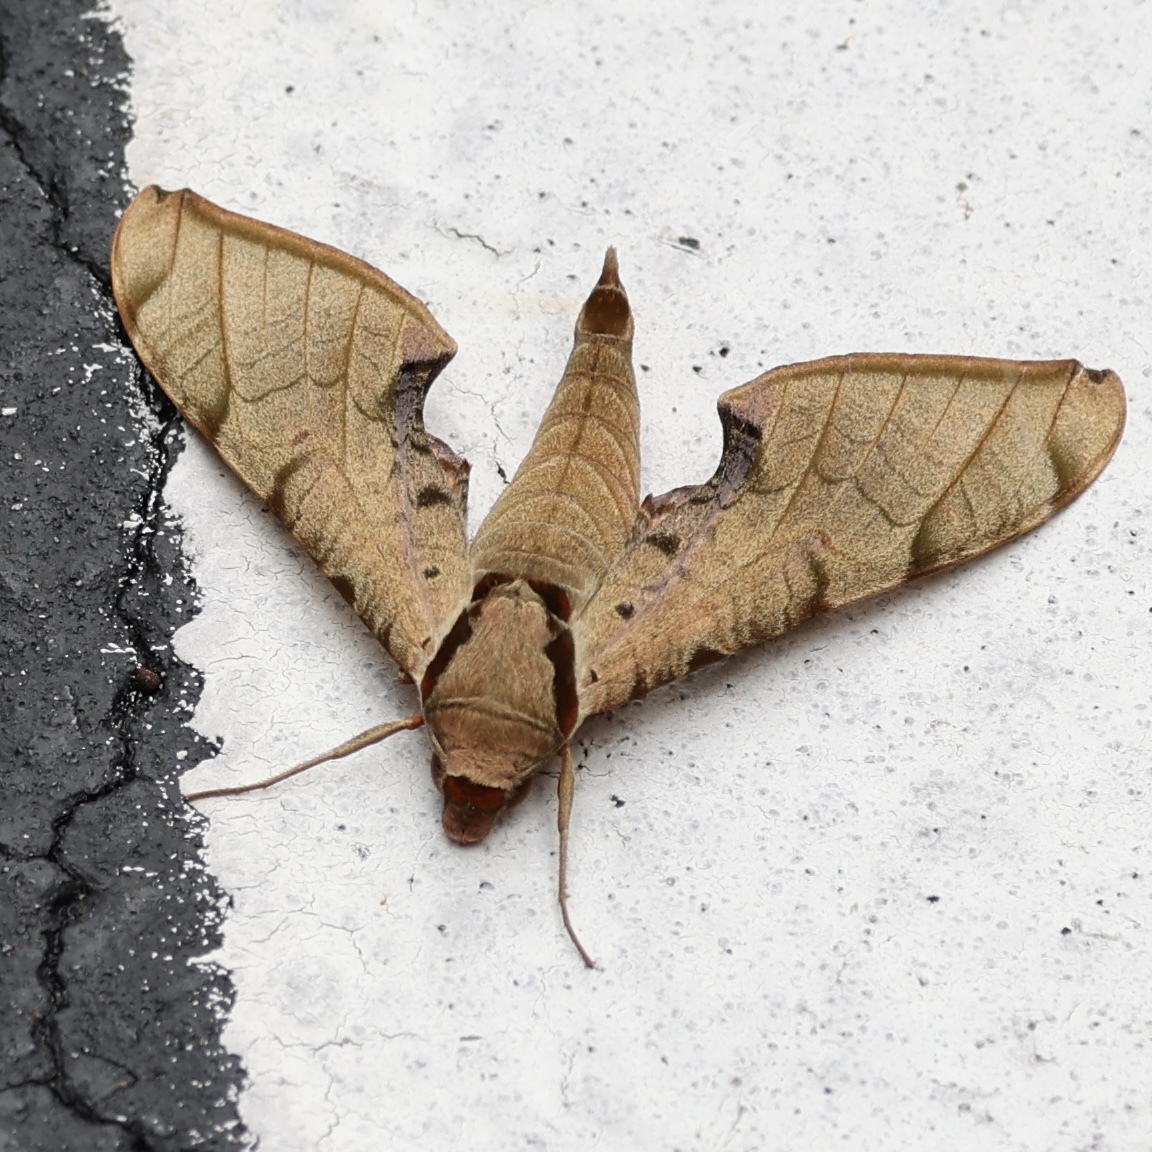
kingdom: Animalia
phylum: Arthropoda
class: Insecta
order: Lepidoptera
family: Sphingidae
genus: Protambulyx
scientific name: Protambulyx strigilis
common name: Streaked sphinx
